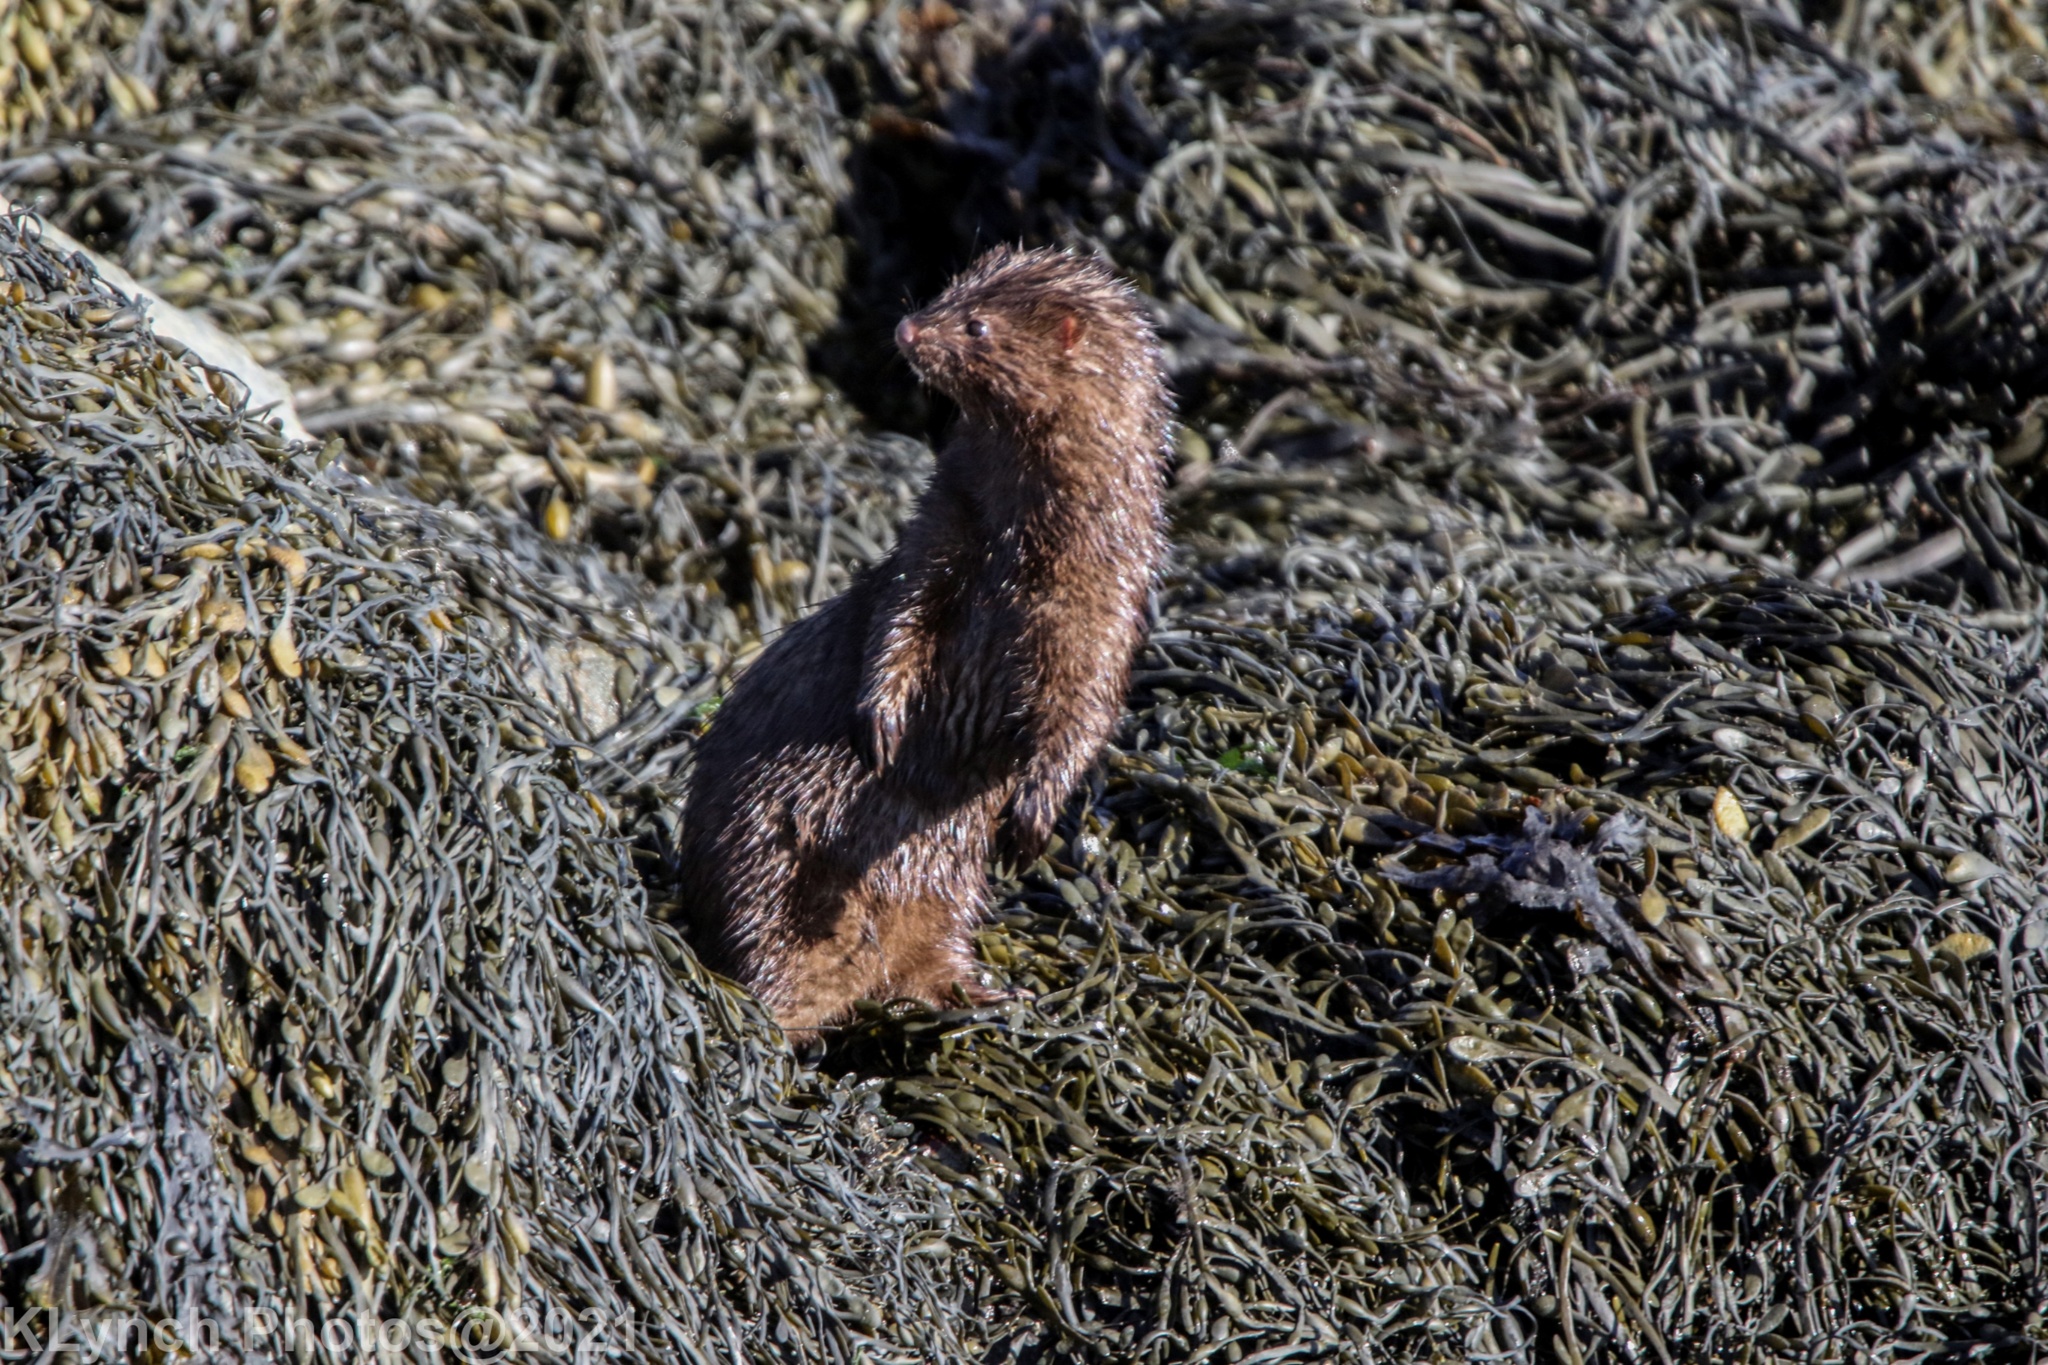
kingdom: Animalia
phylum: Chordata
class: Mammalia
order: Carnivora
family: Mustelidae
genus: Mustela
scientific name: Mustela
